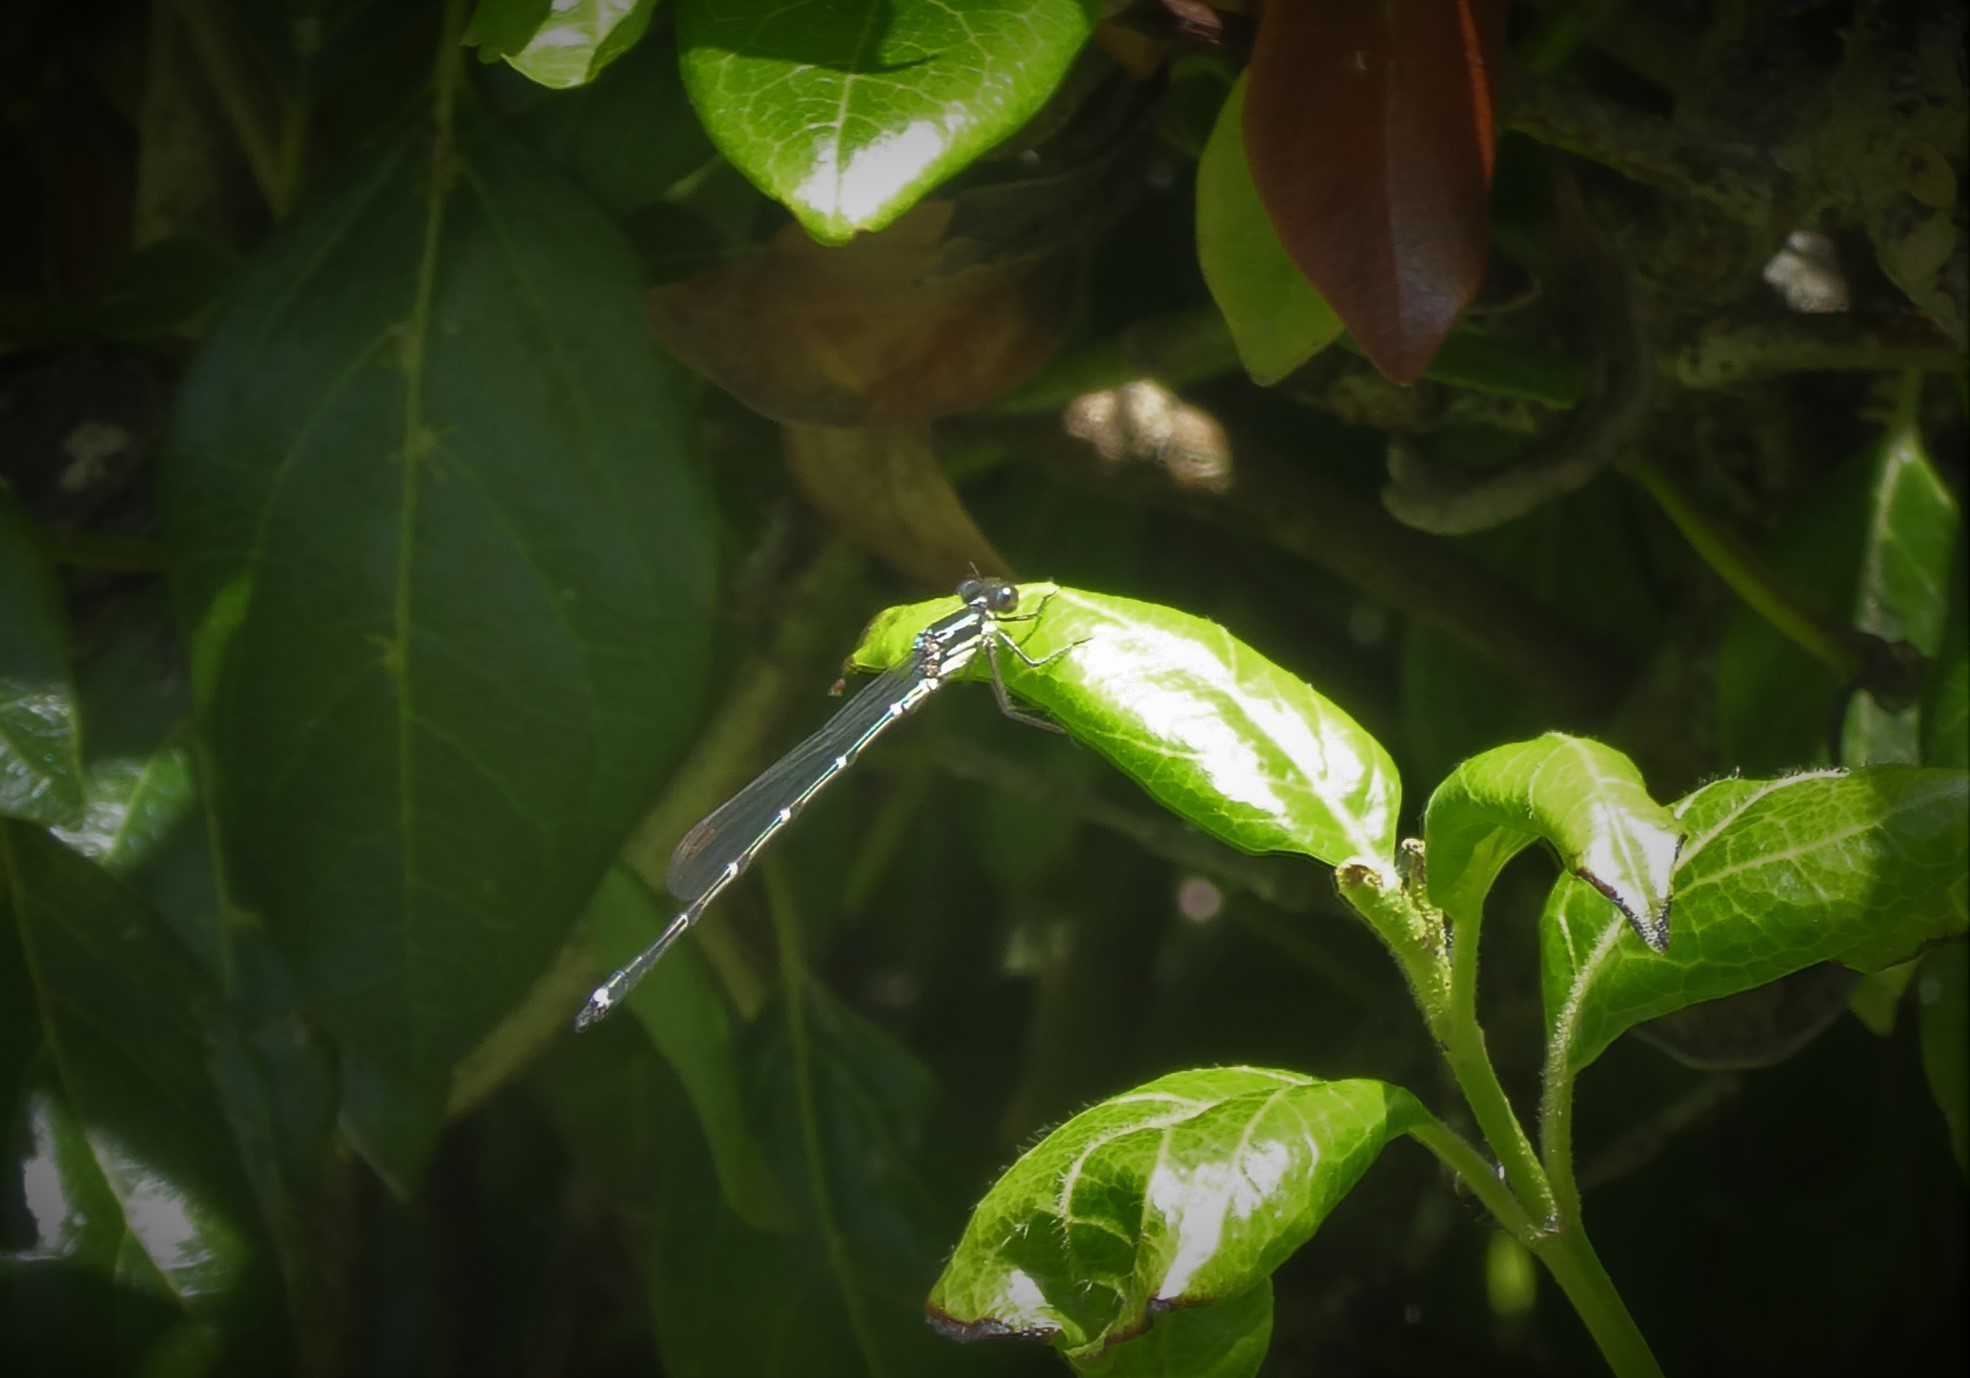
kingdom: Animalia
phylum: Arthropoda
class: Insecta
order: Odonata
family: Lestidae
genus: Austrolestes
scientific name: Austrolestes colensonis
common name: Blue damselfly
